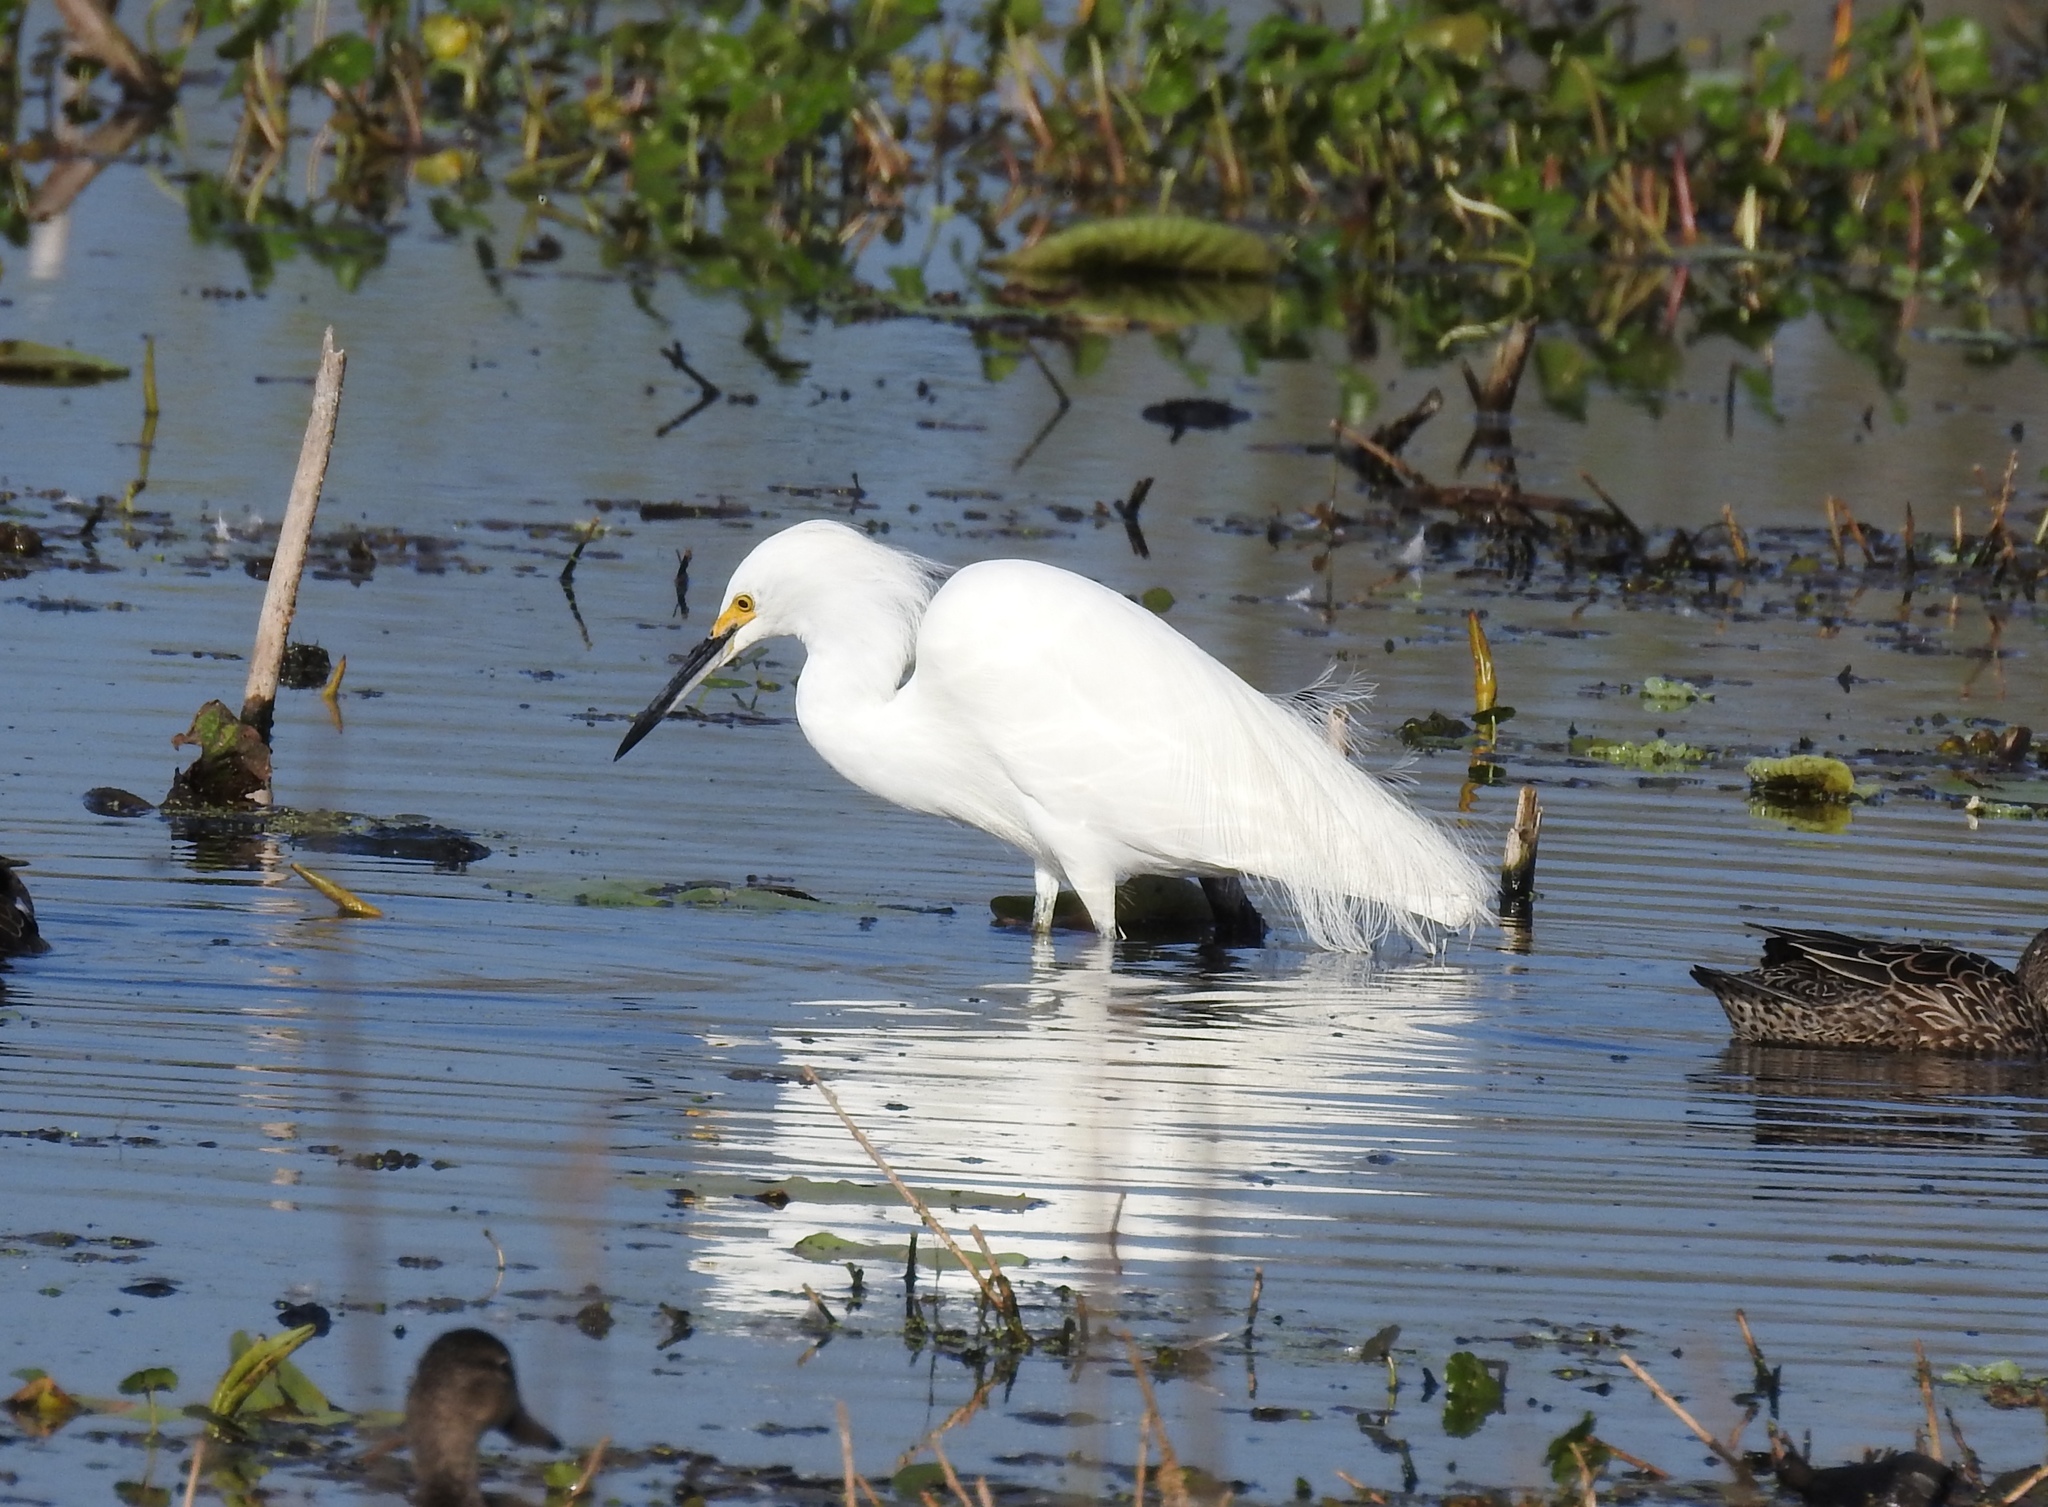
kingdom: Animalia
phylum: Chordata
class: Aves
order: Pelecaniformes
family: Ardeidae
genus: Egretta
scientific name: Egretta thula
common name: Snowy egret
